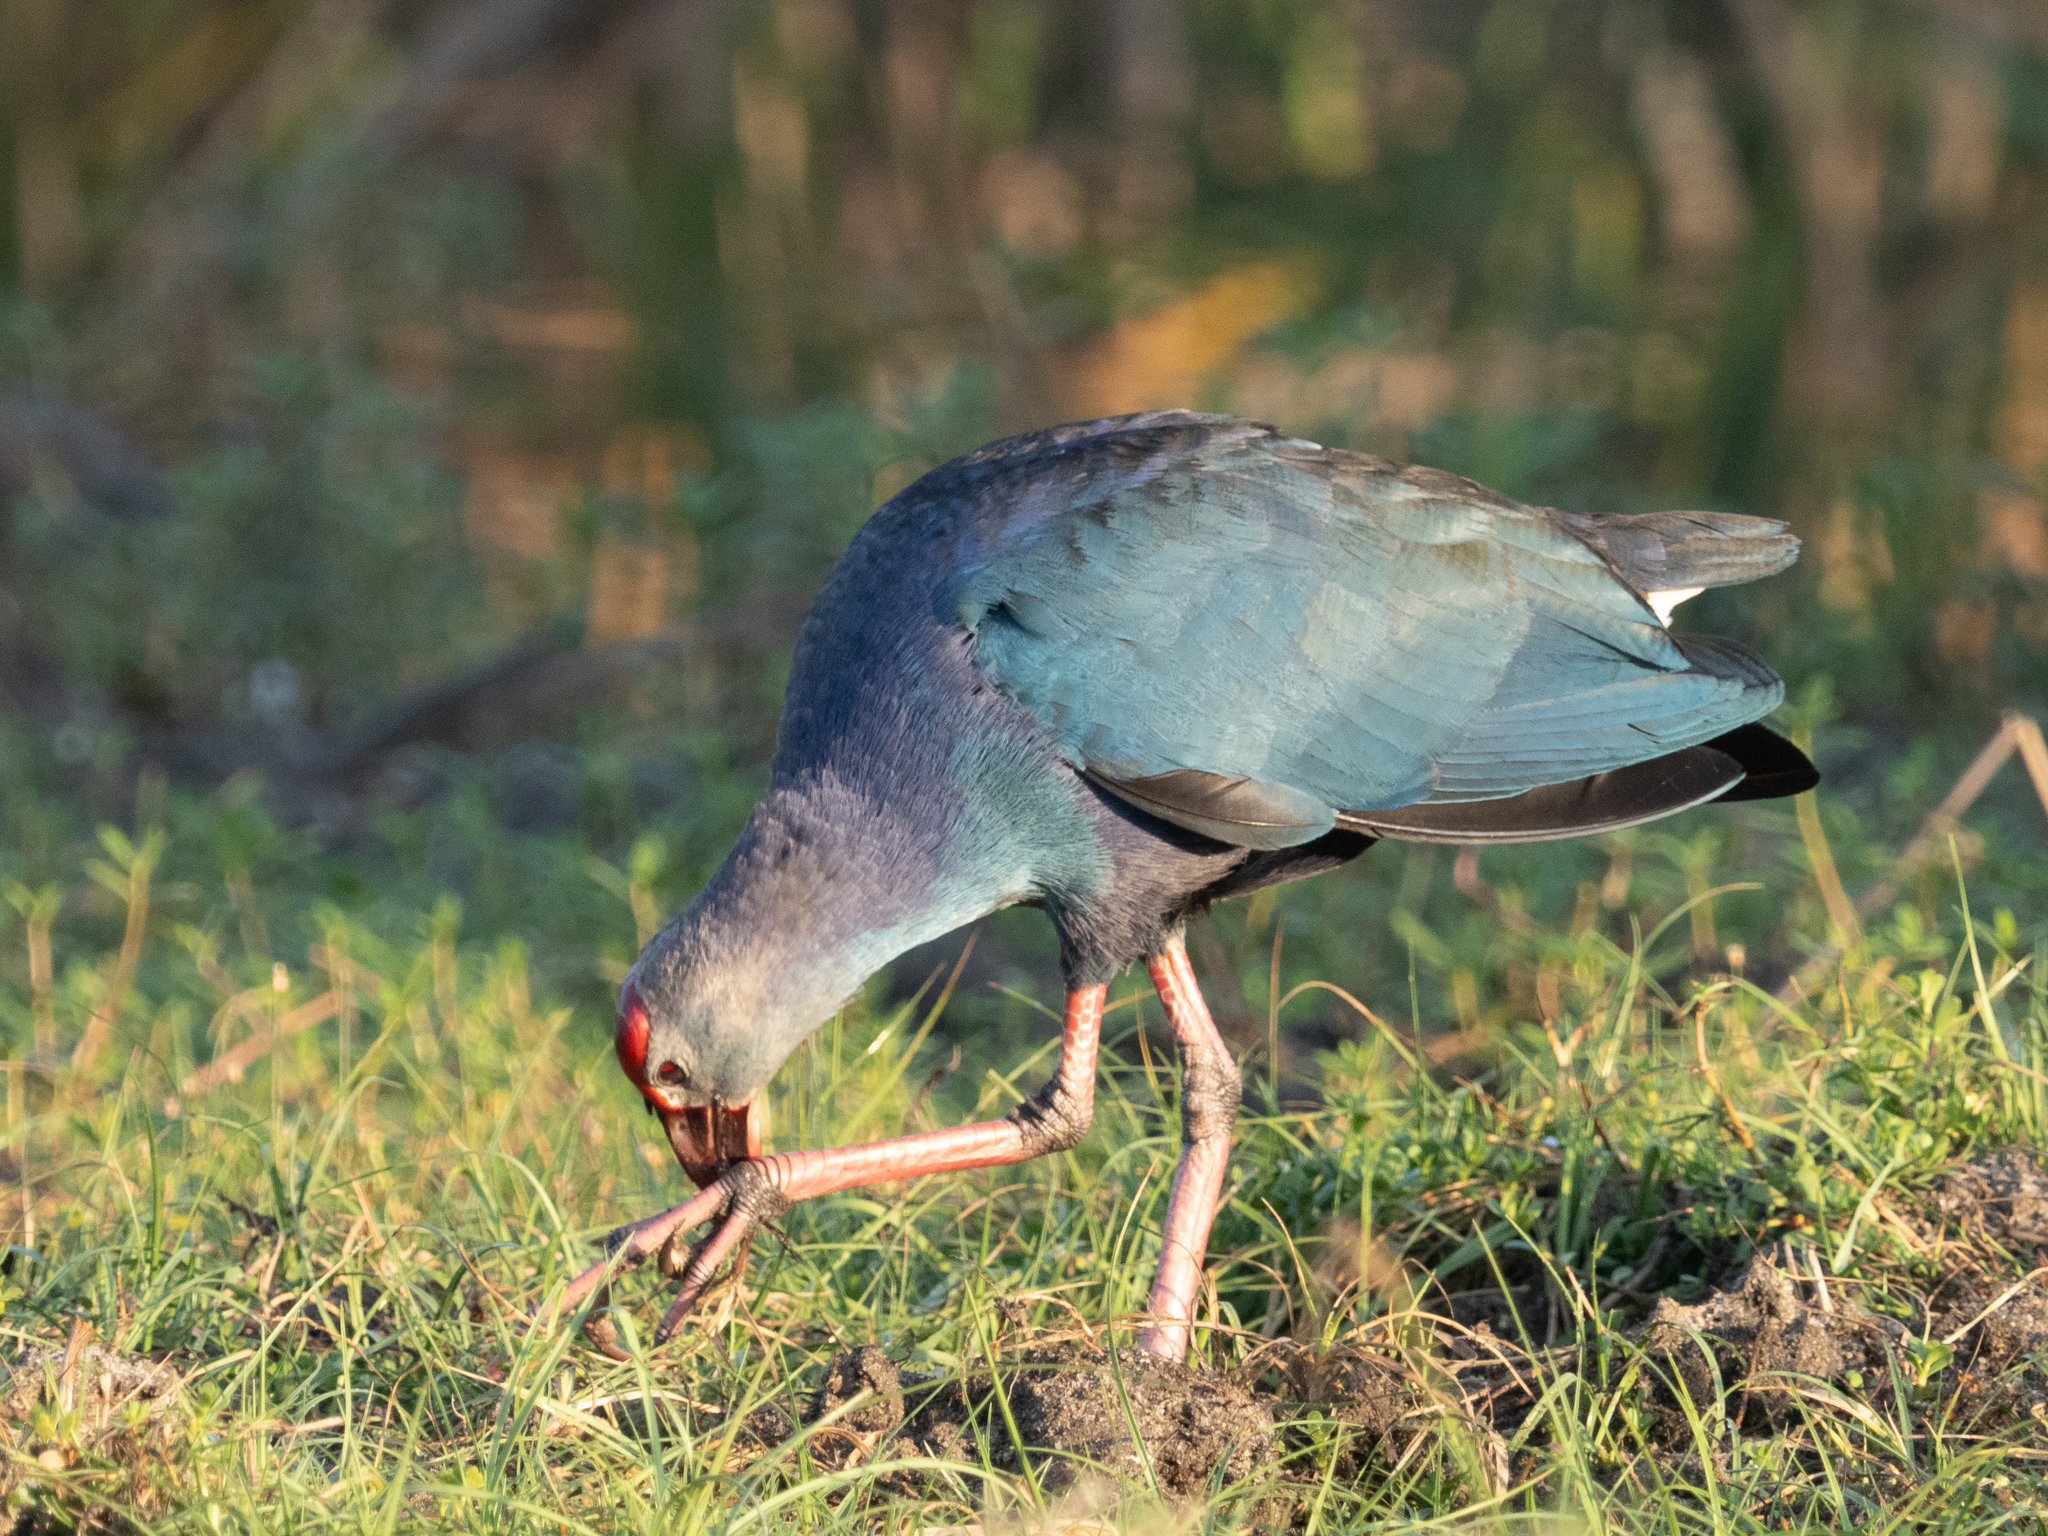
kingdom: Animalia
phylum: Chordata
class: Aves
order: Gruiformes
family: Rallidae
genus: Porphyrio
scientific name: Porphyrio porphyrio
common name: Purple swamphen
